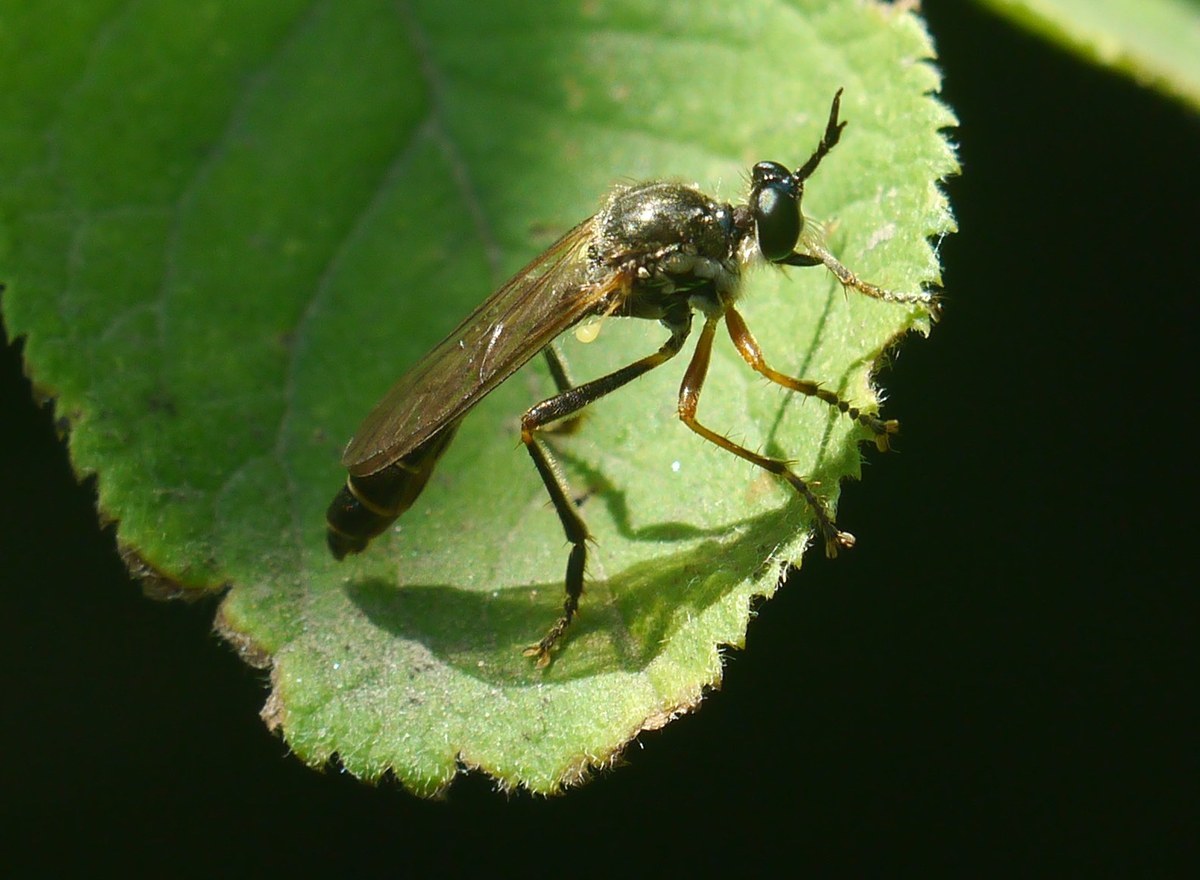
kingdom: Animalia
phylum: Arthropoda
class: Insecta
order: Diptera
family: Asilidae
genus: Dioctria
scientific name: Dioctria
